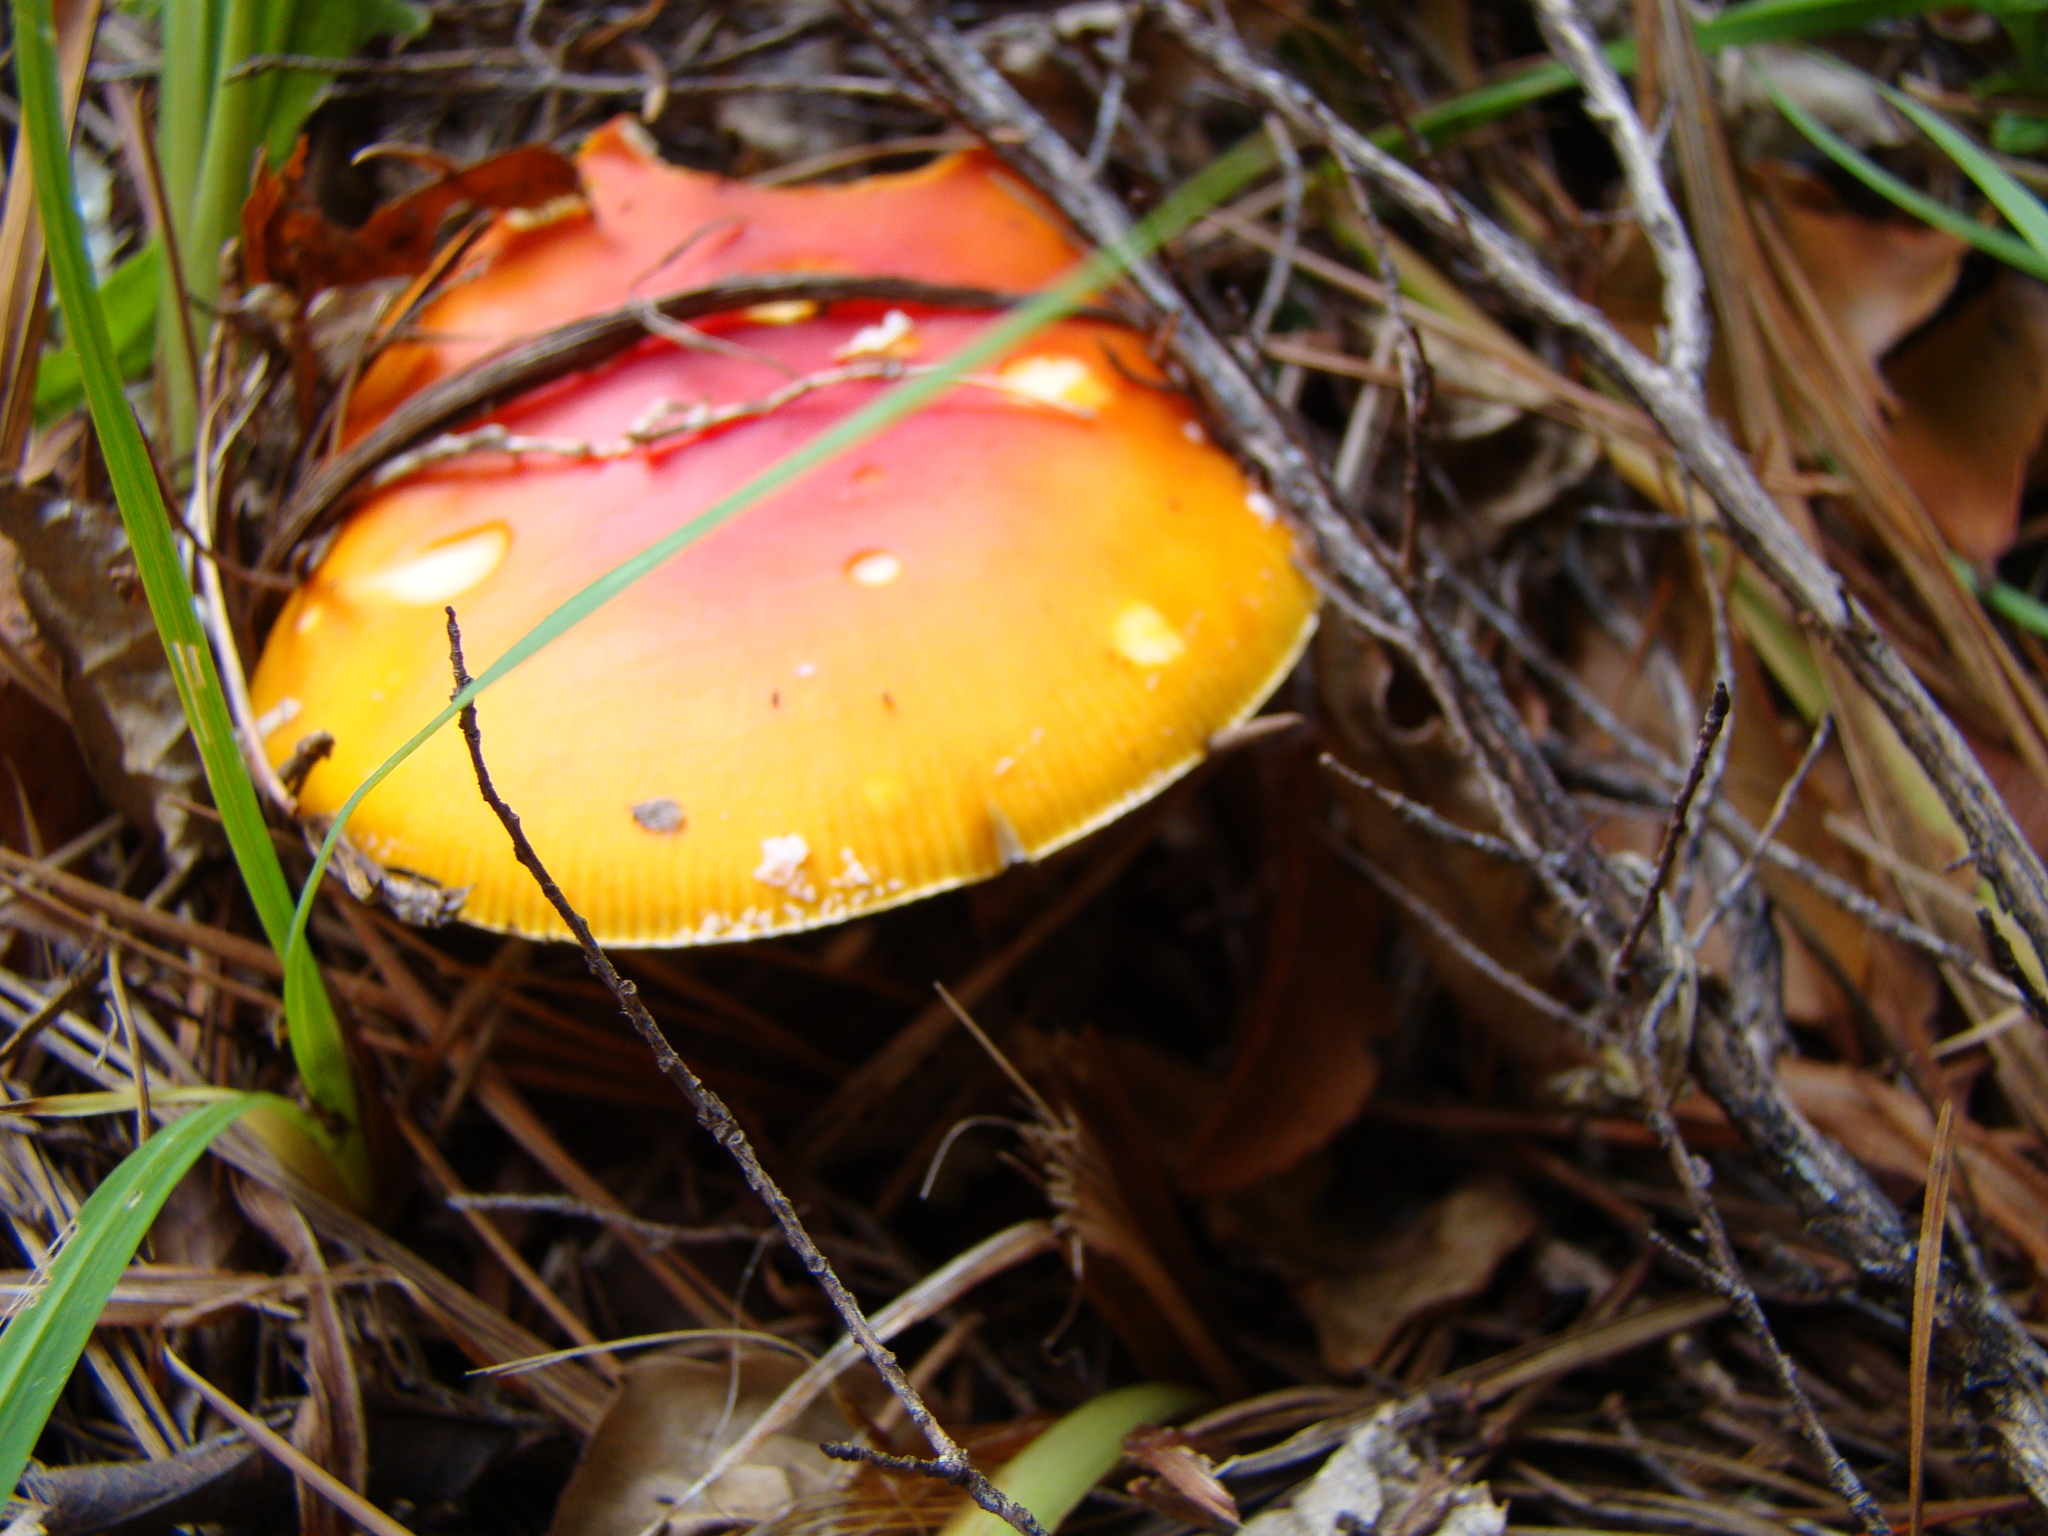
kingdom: Fungi
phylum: Basidiomycota
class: Agaricomycetes
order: Agaricales
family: Amanitaceae
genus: Amanita
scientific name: Amanita muscaria
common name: Fly agaric
